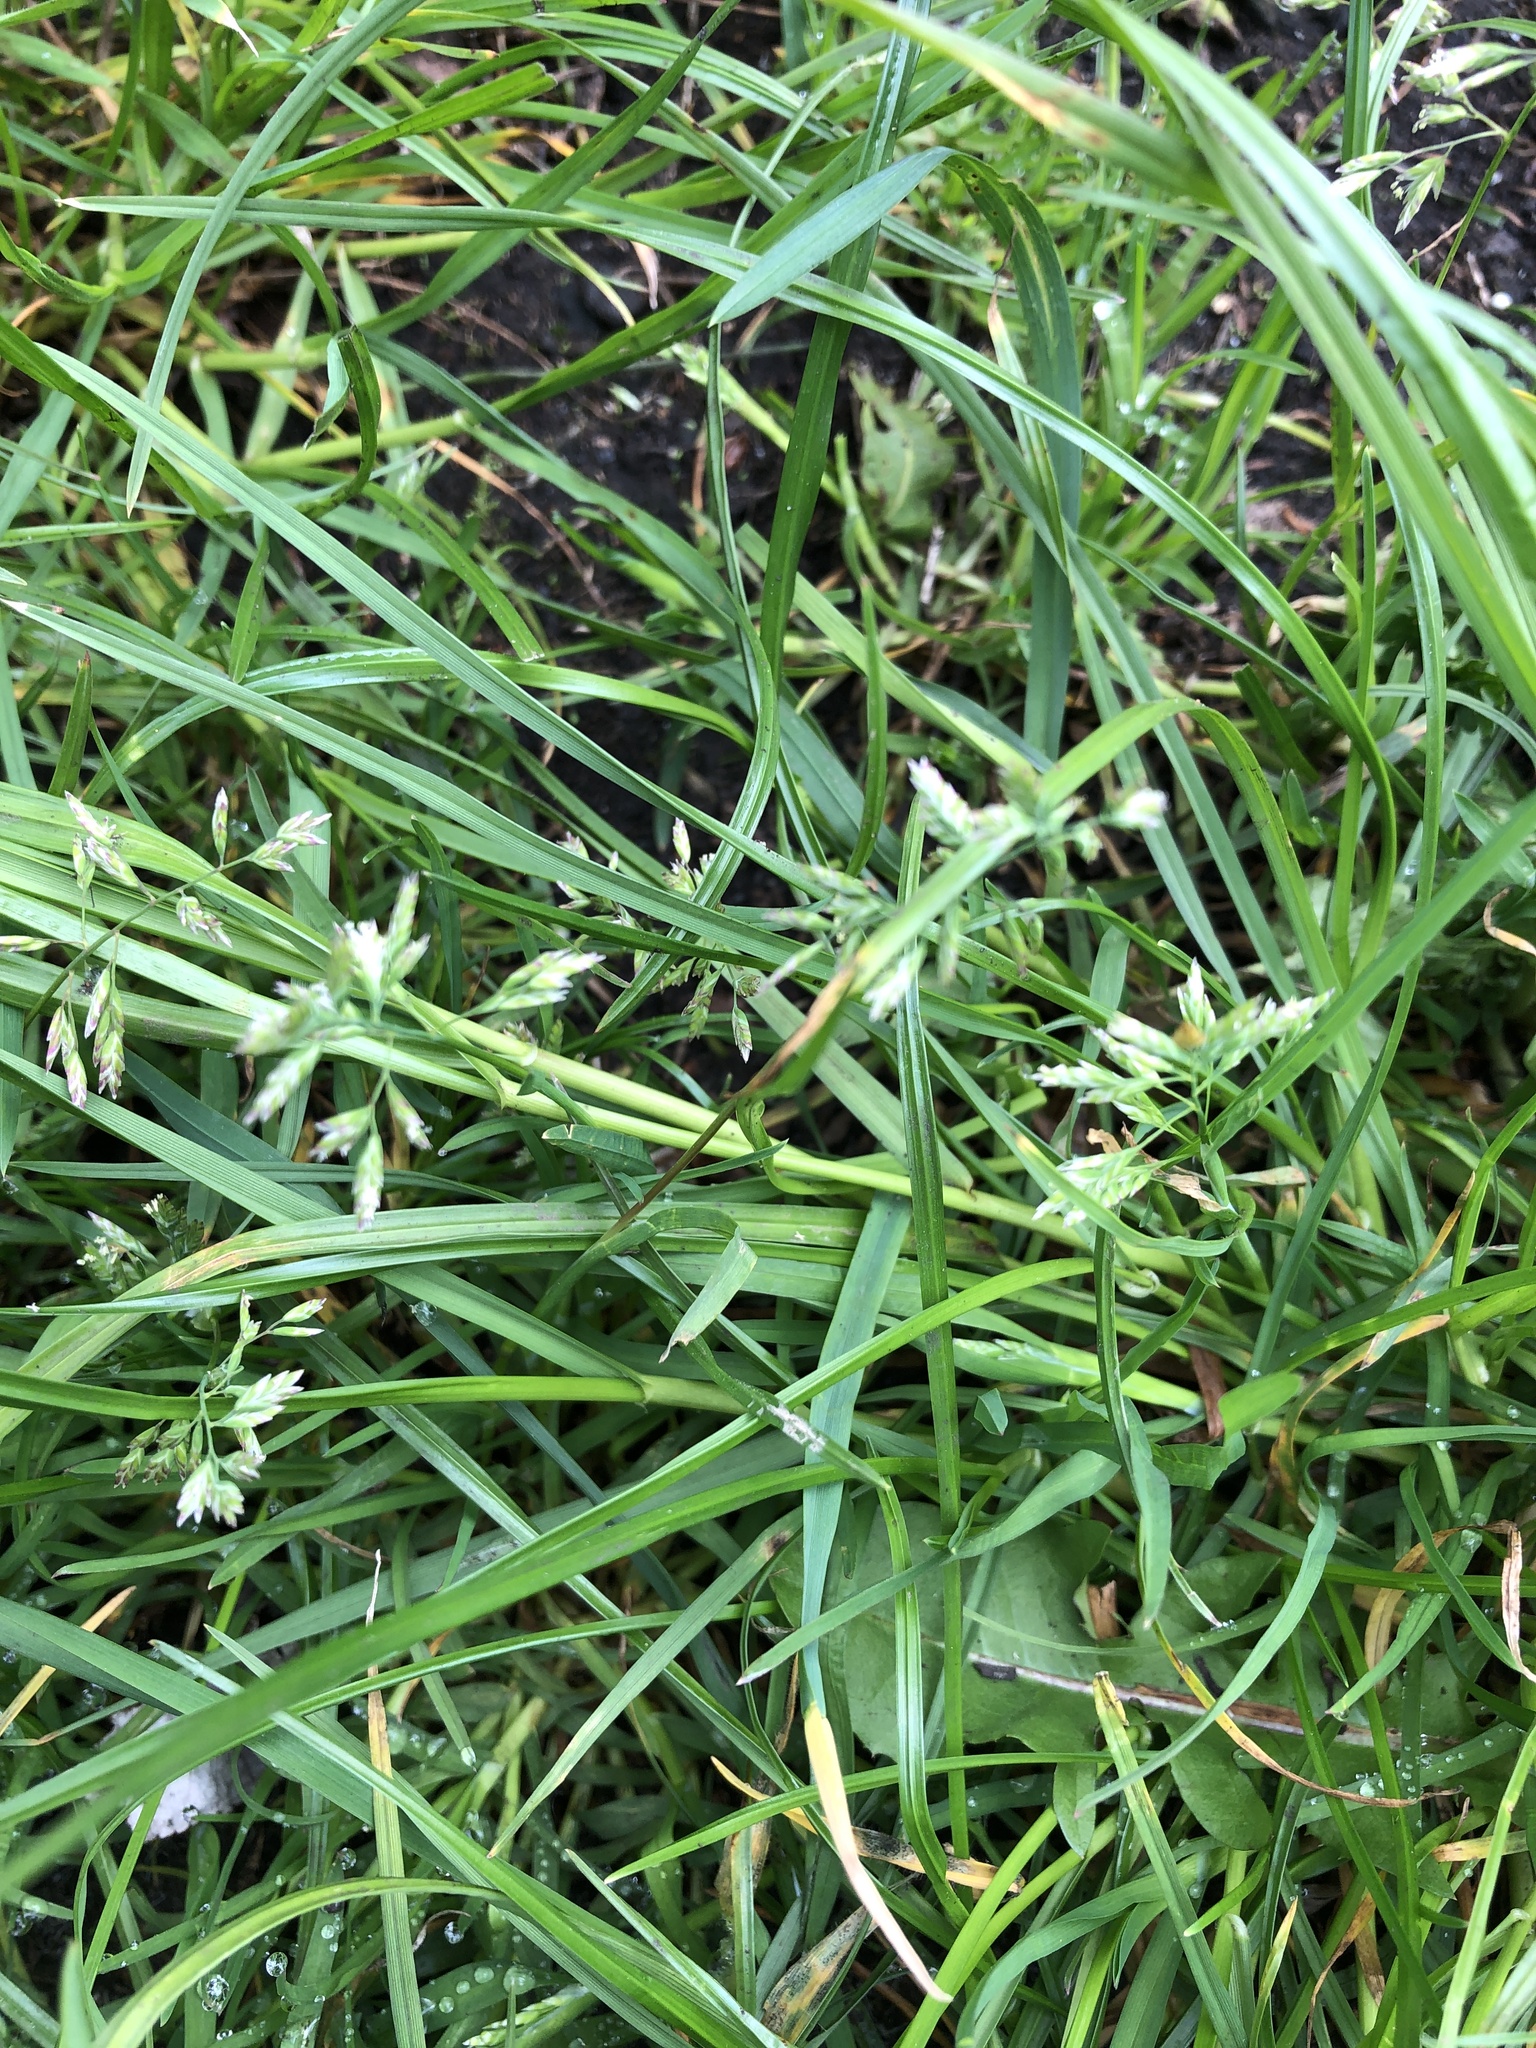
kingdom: Plantae
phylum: Tracheophyta
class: Liliopsida
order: Poales
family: Poaceae
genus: Poa
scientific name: Poa annua
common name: Annual bluegrass
